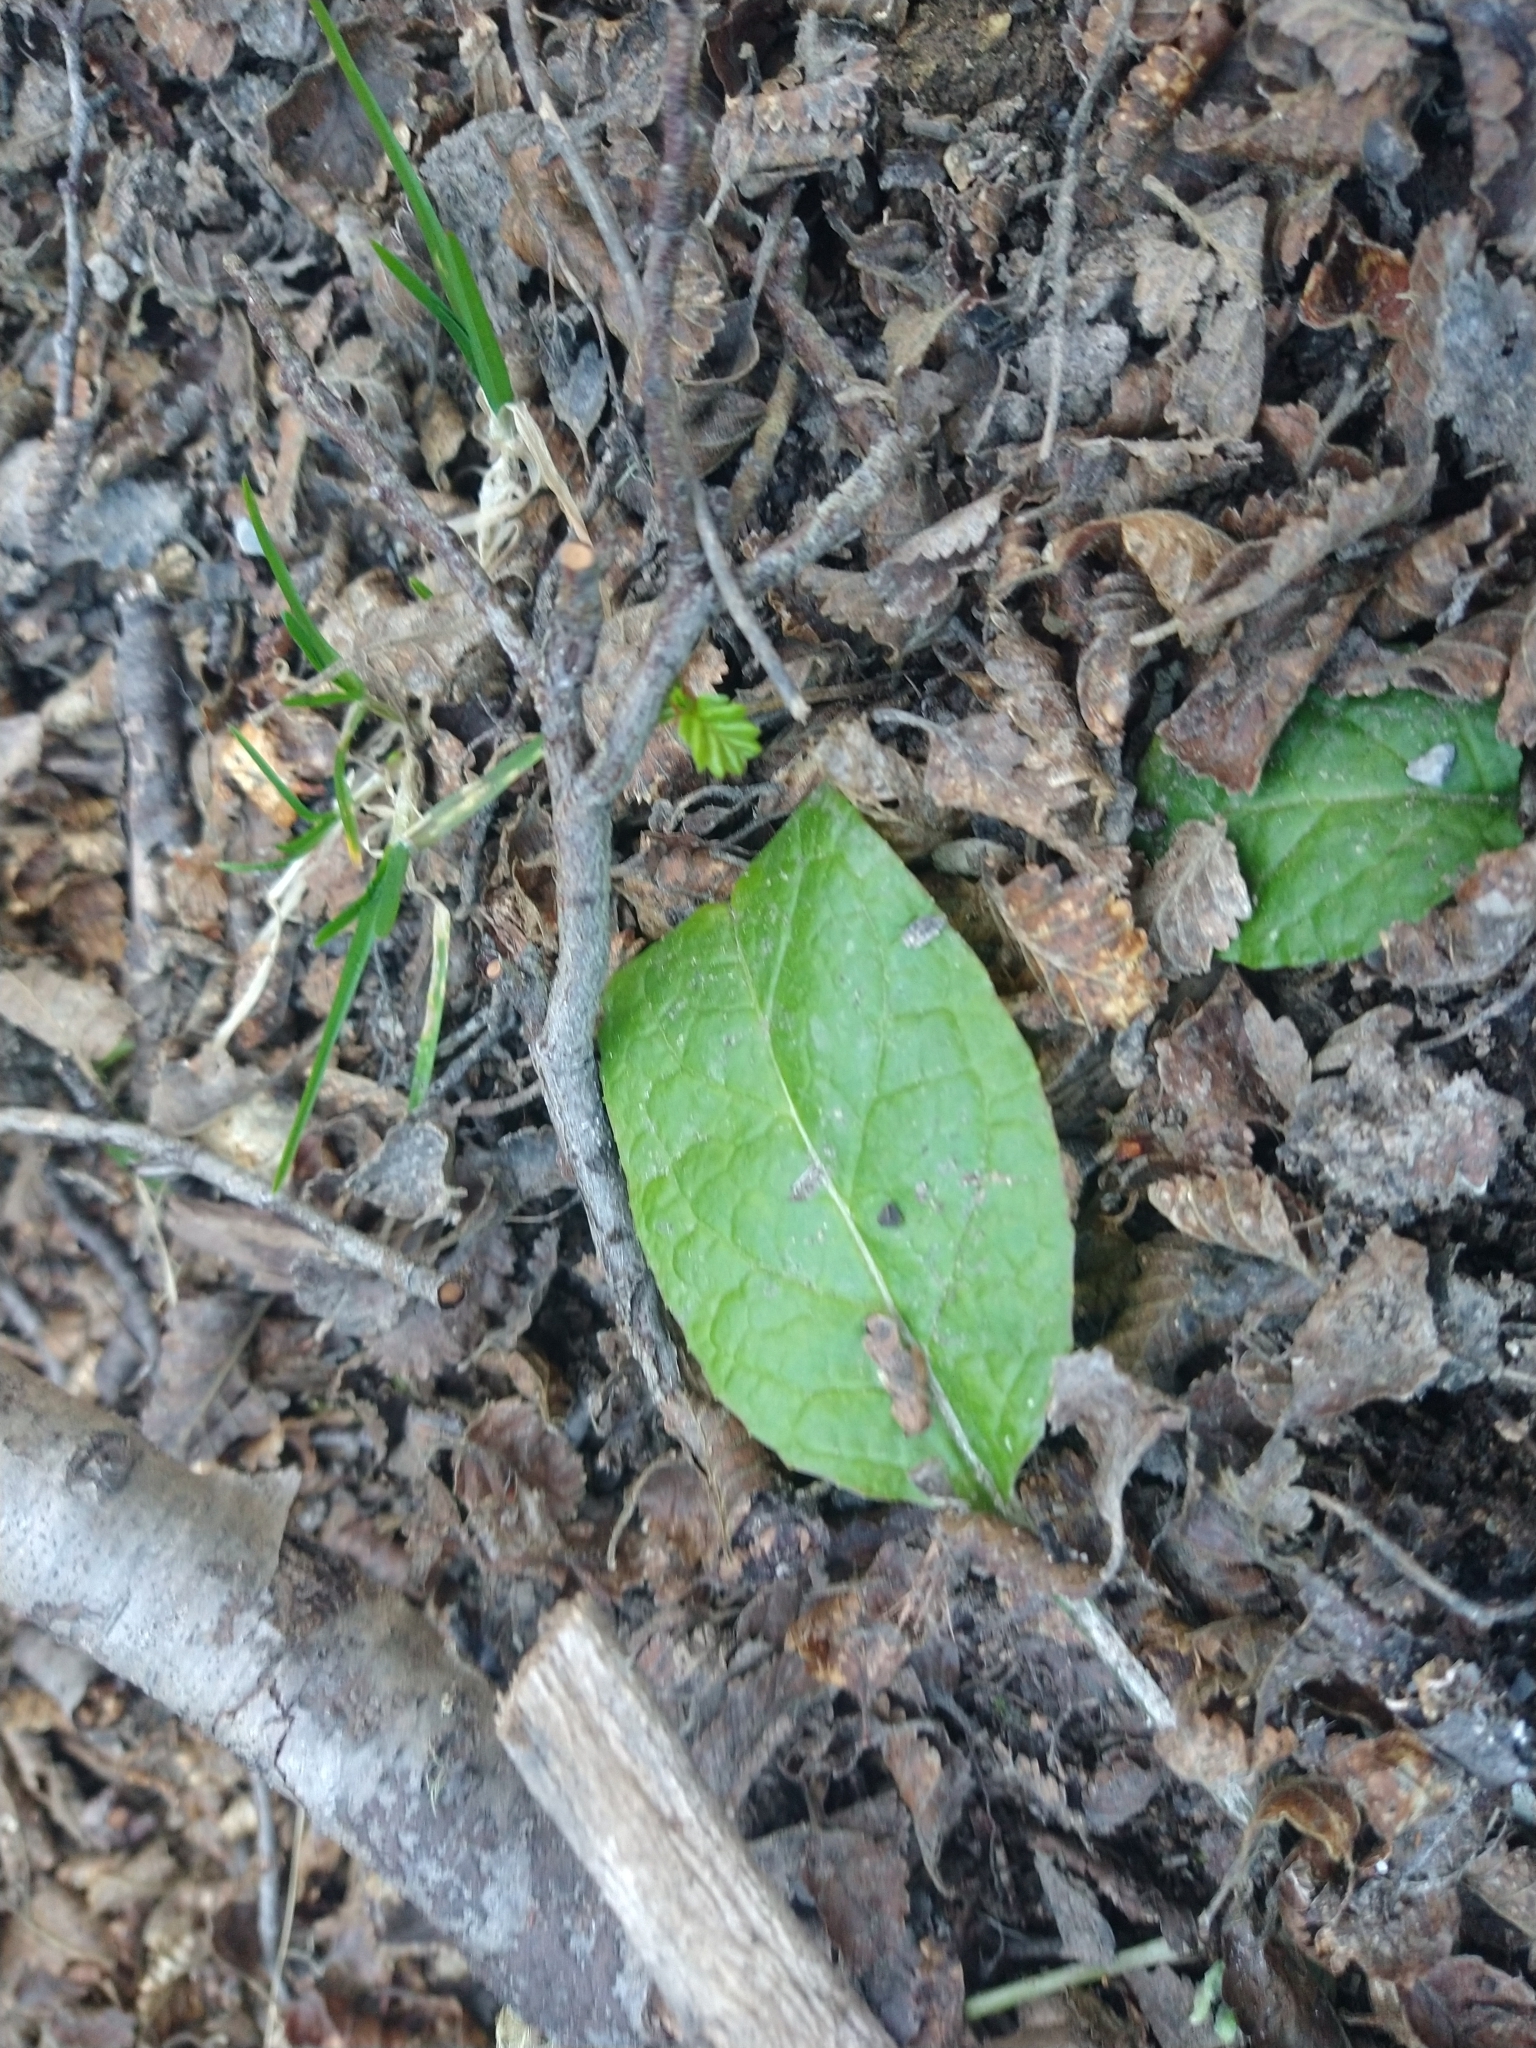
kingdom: Plantae
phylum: Tracheophyta
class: Magnoliopsida
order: Asterales
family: Asteraceae
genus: Adenocaulon
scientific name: Adenocaulon chilense
